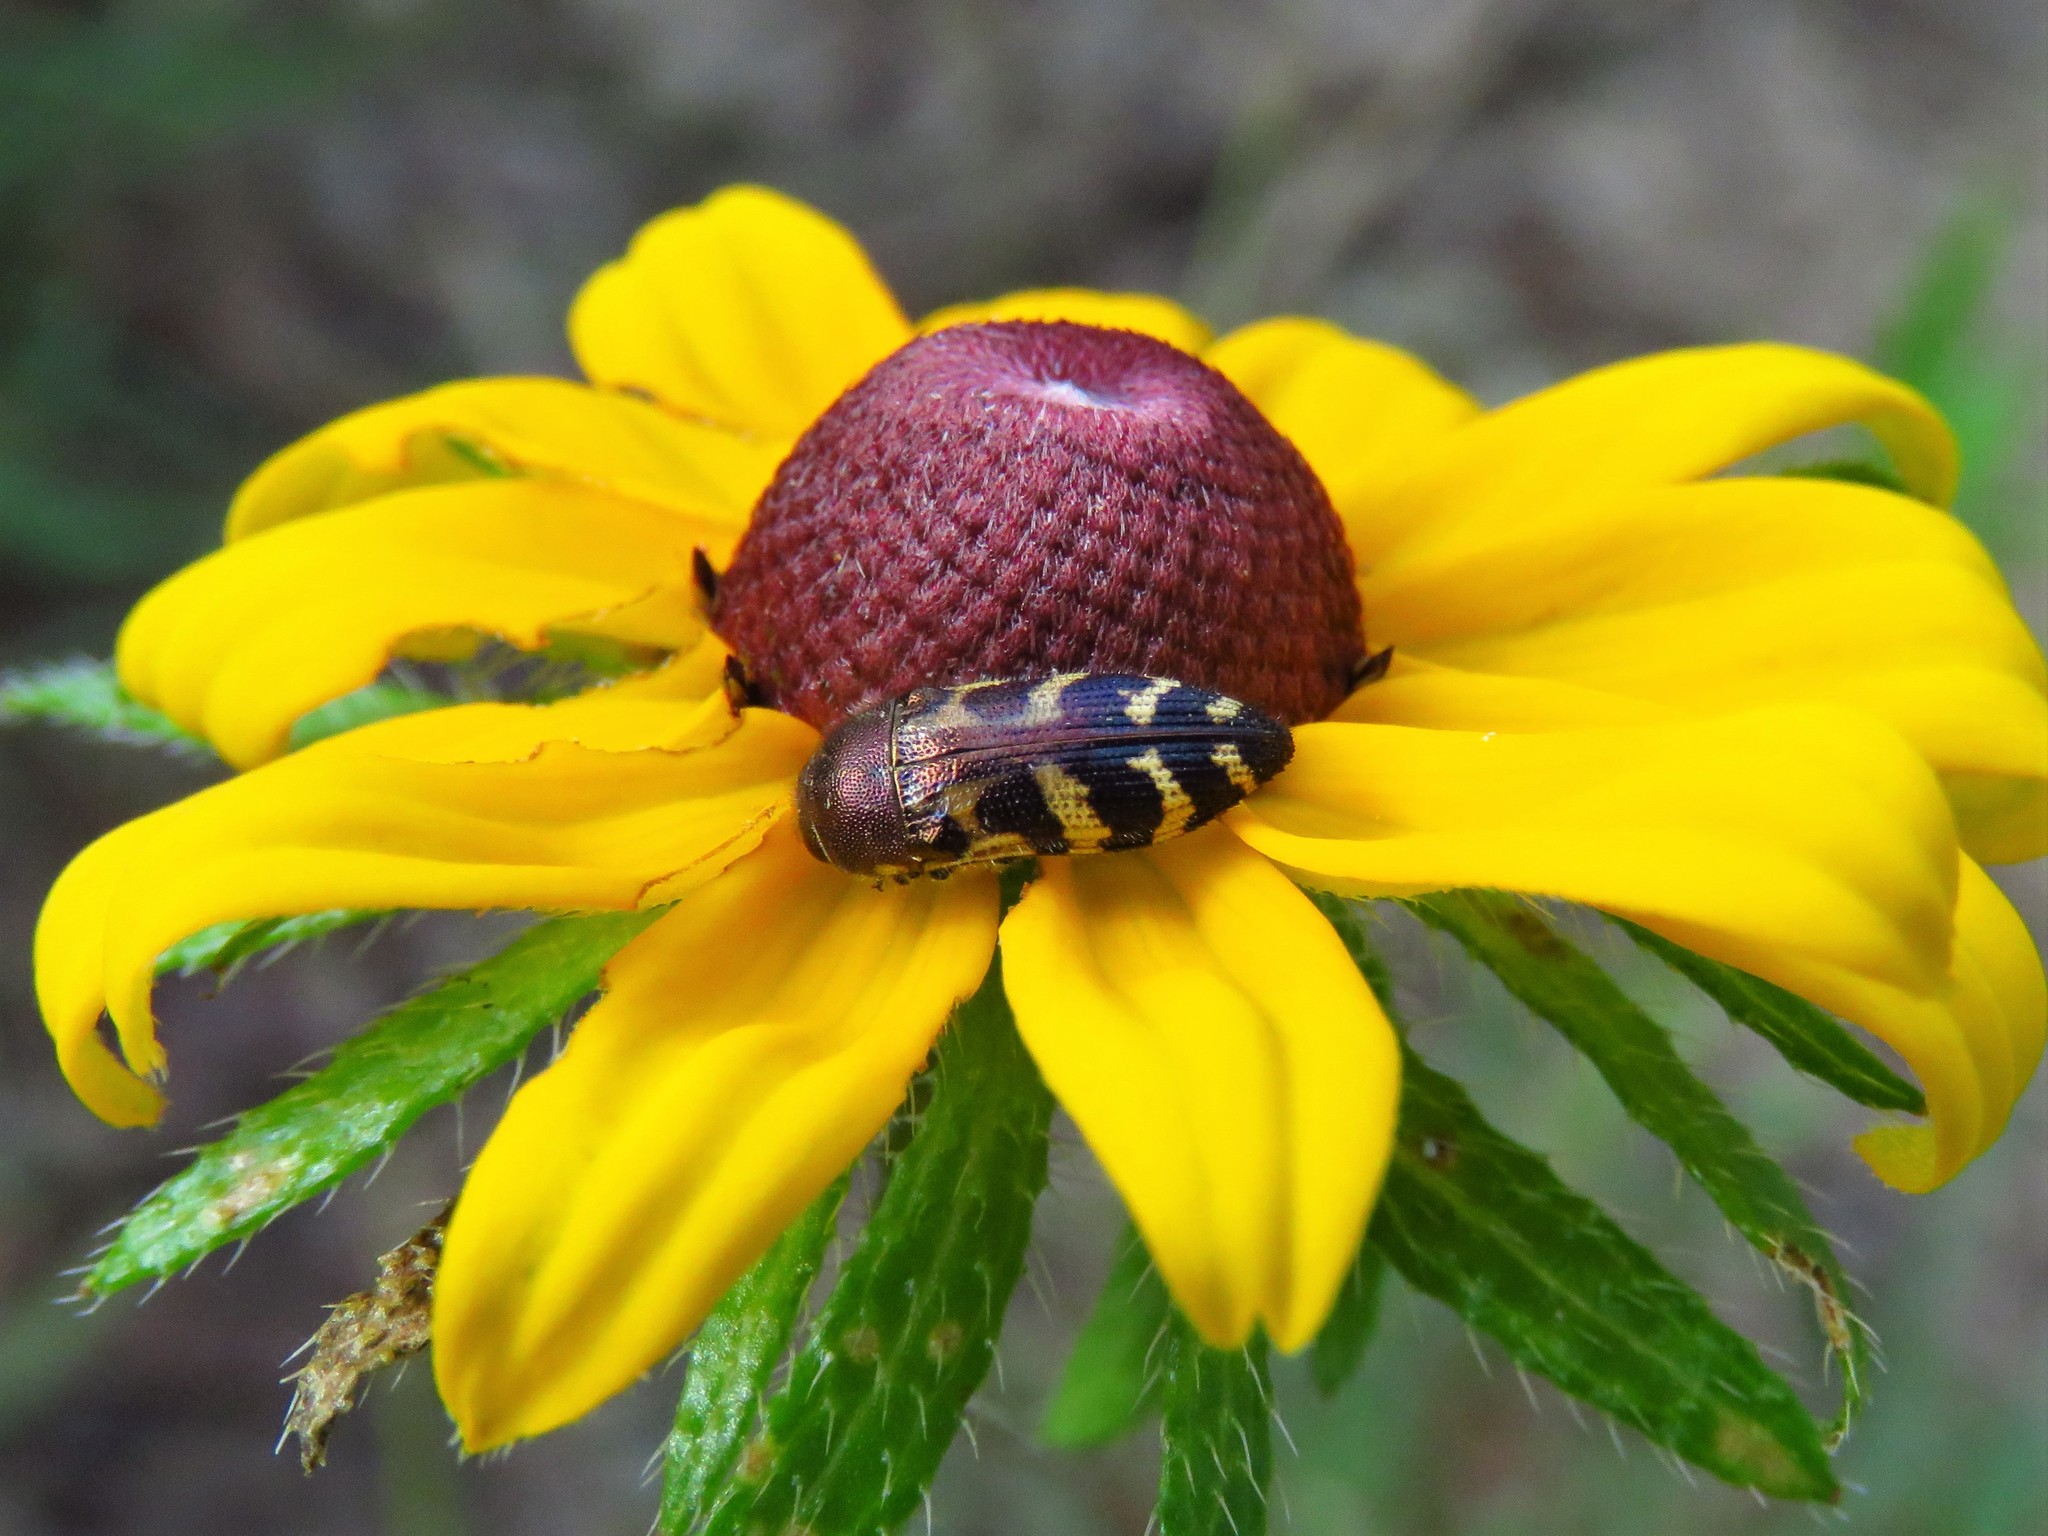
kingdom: Animalia
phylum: Arthropoda
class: Insecta
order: Coleoptera
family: Buprestidae
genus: Acmaeodera
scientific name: Acmaeodera pulchella
